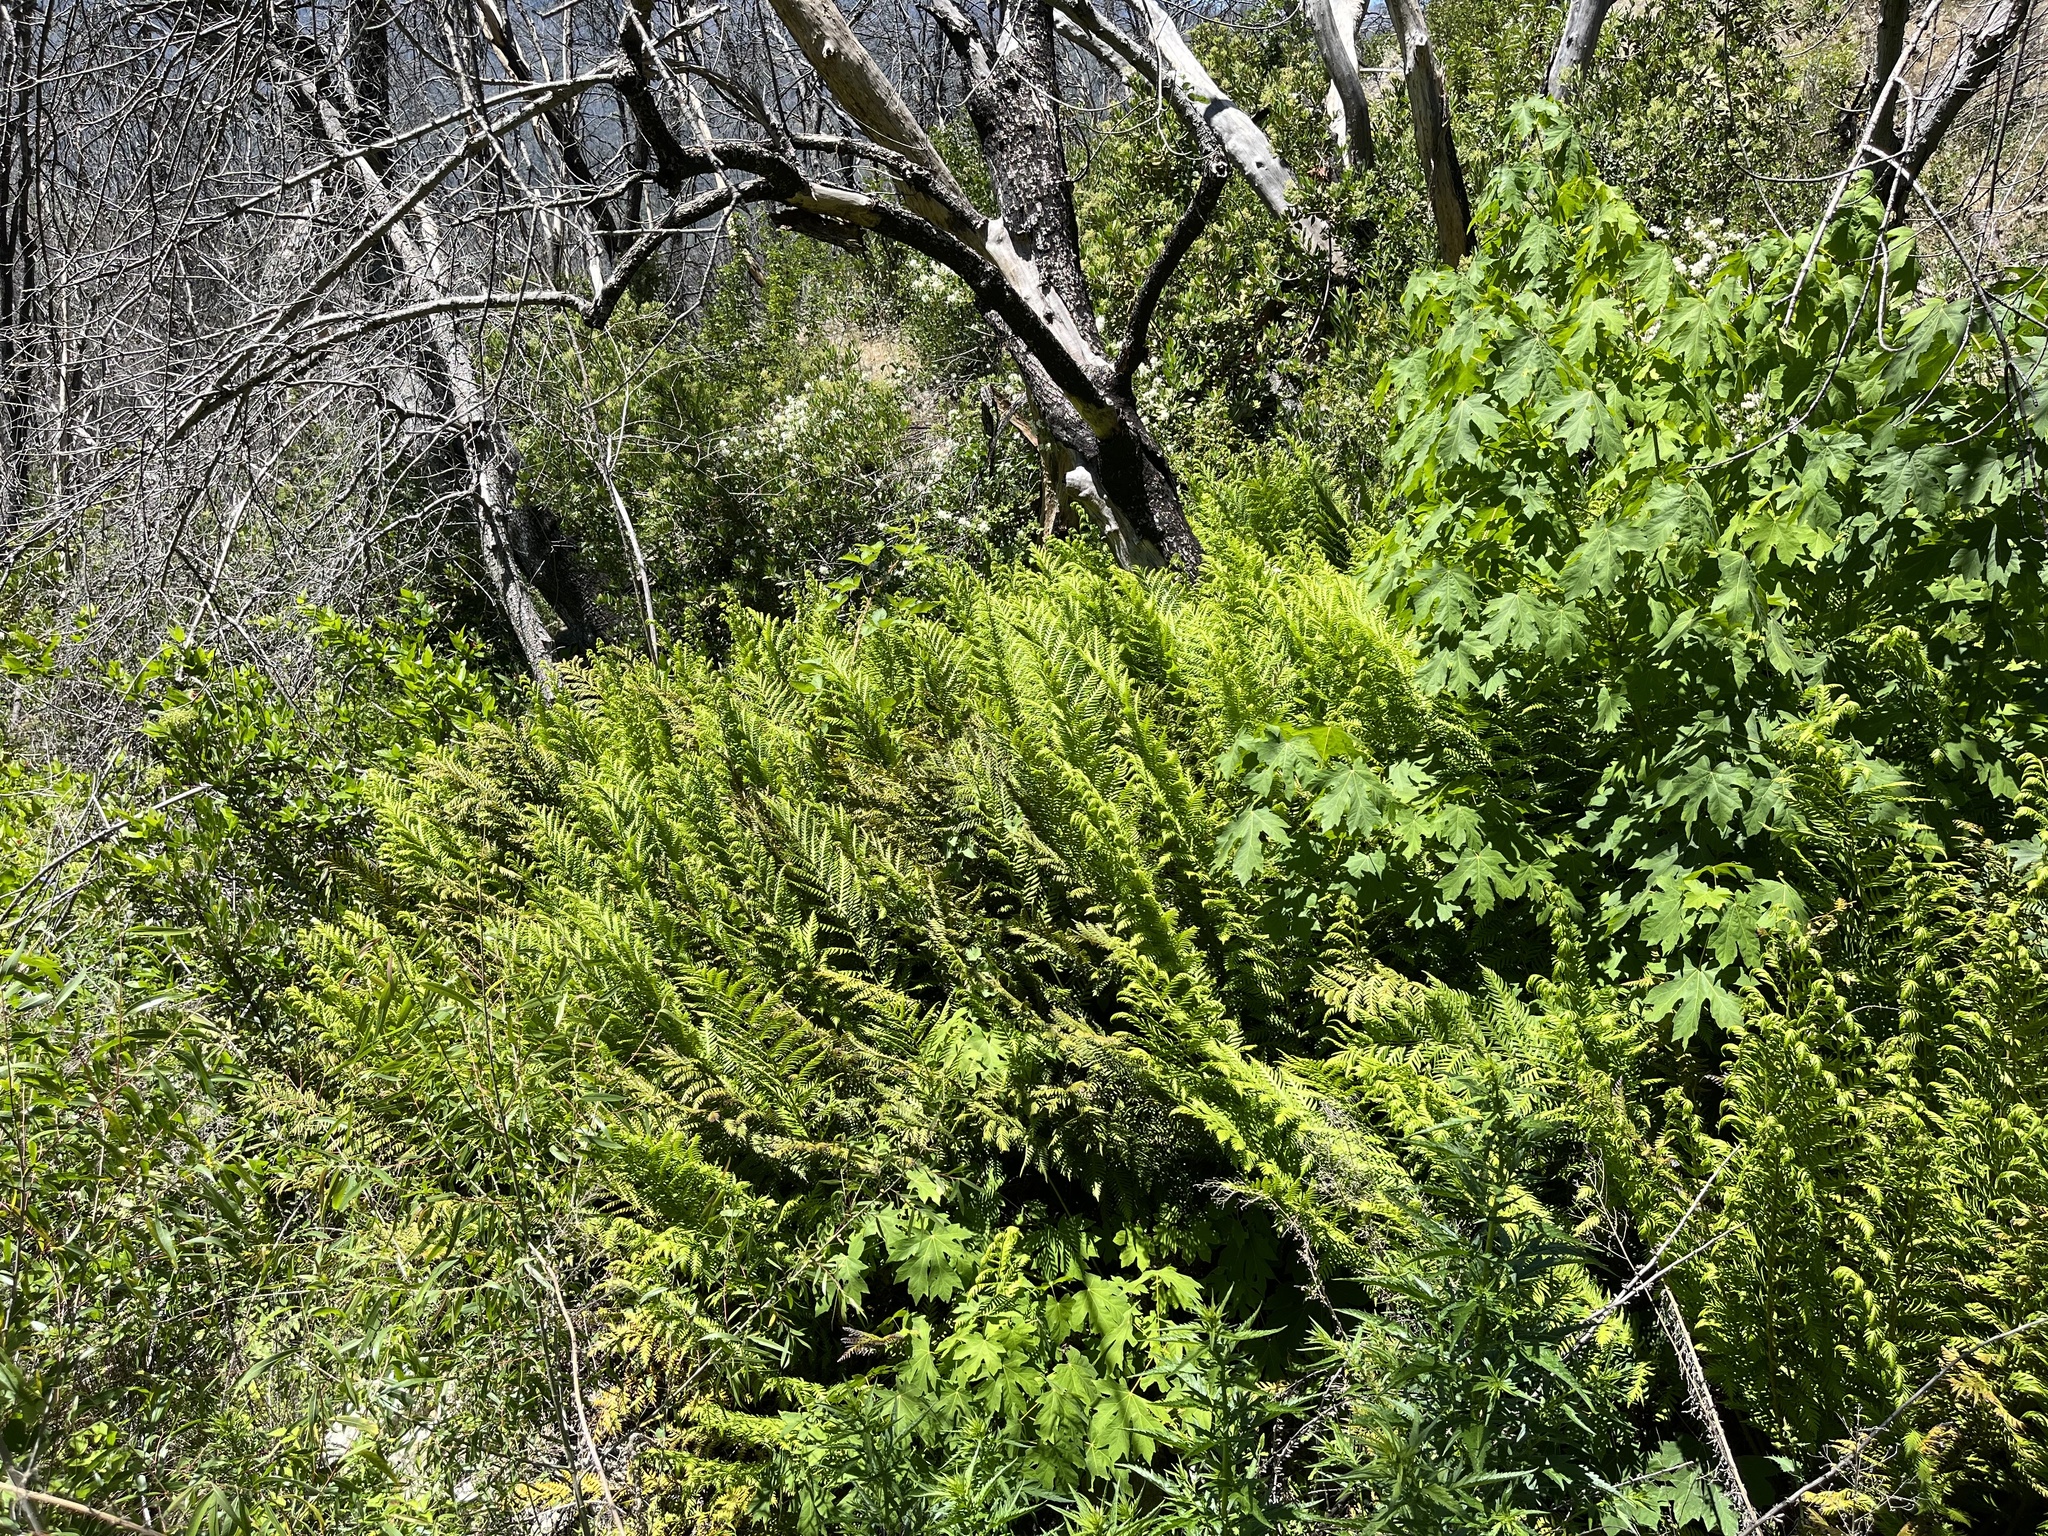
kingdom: Plantae
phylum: Tracheophyta
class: Polypodiopsida
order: Polypodiales
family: Blechnaceae
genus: Woodwardia
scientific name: Woodwardia fimbriata
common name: Giant chain fern
